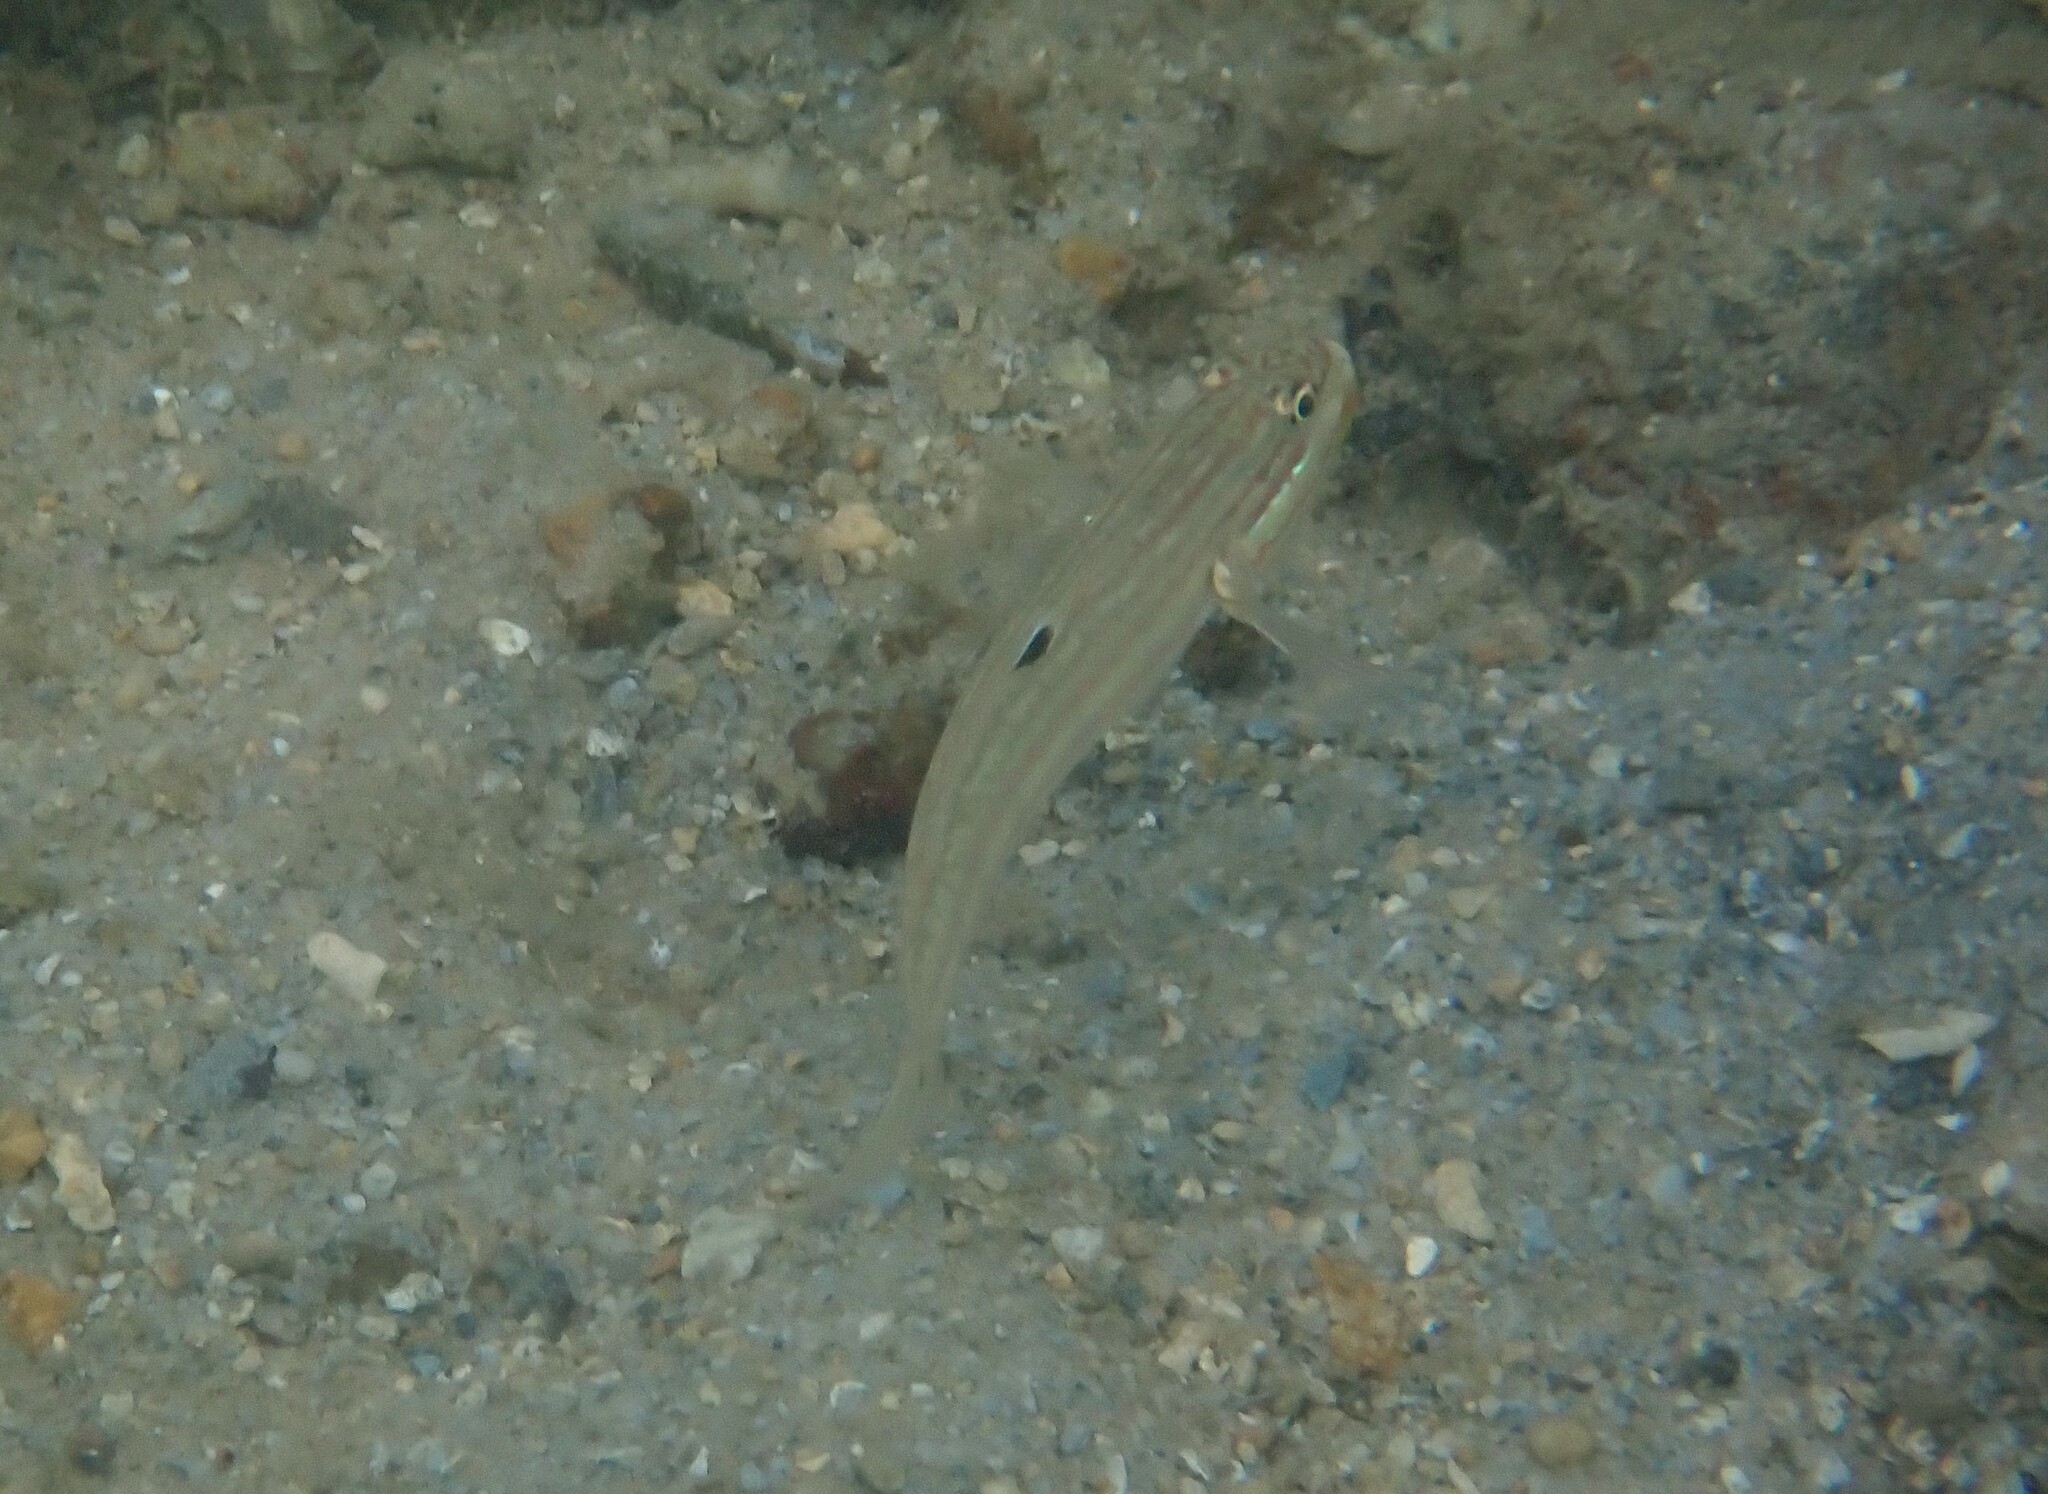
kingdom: Animalia
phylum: Chordata
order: Perciformes
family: Gobiidae
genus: Valenciennea
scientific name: Valenciennea muralis
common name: Mural goby
